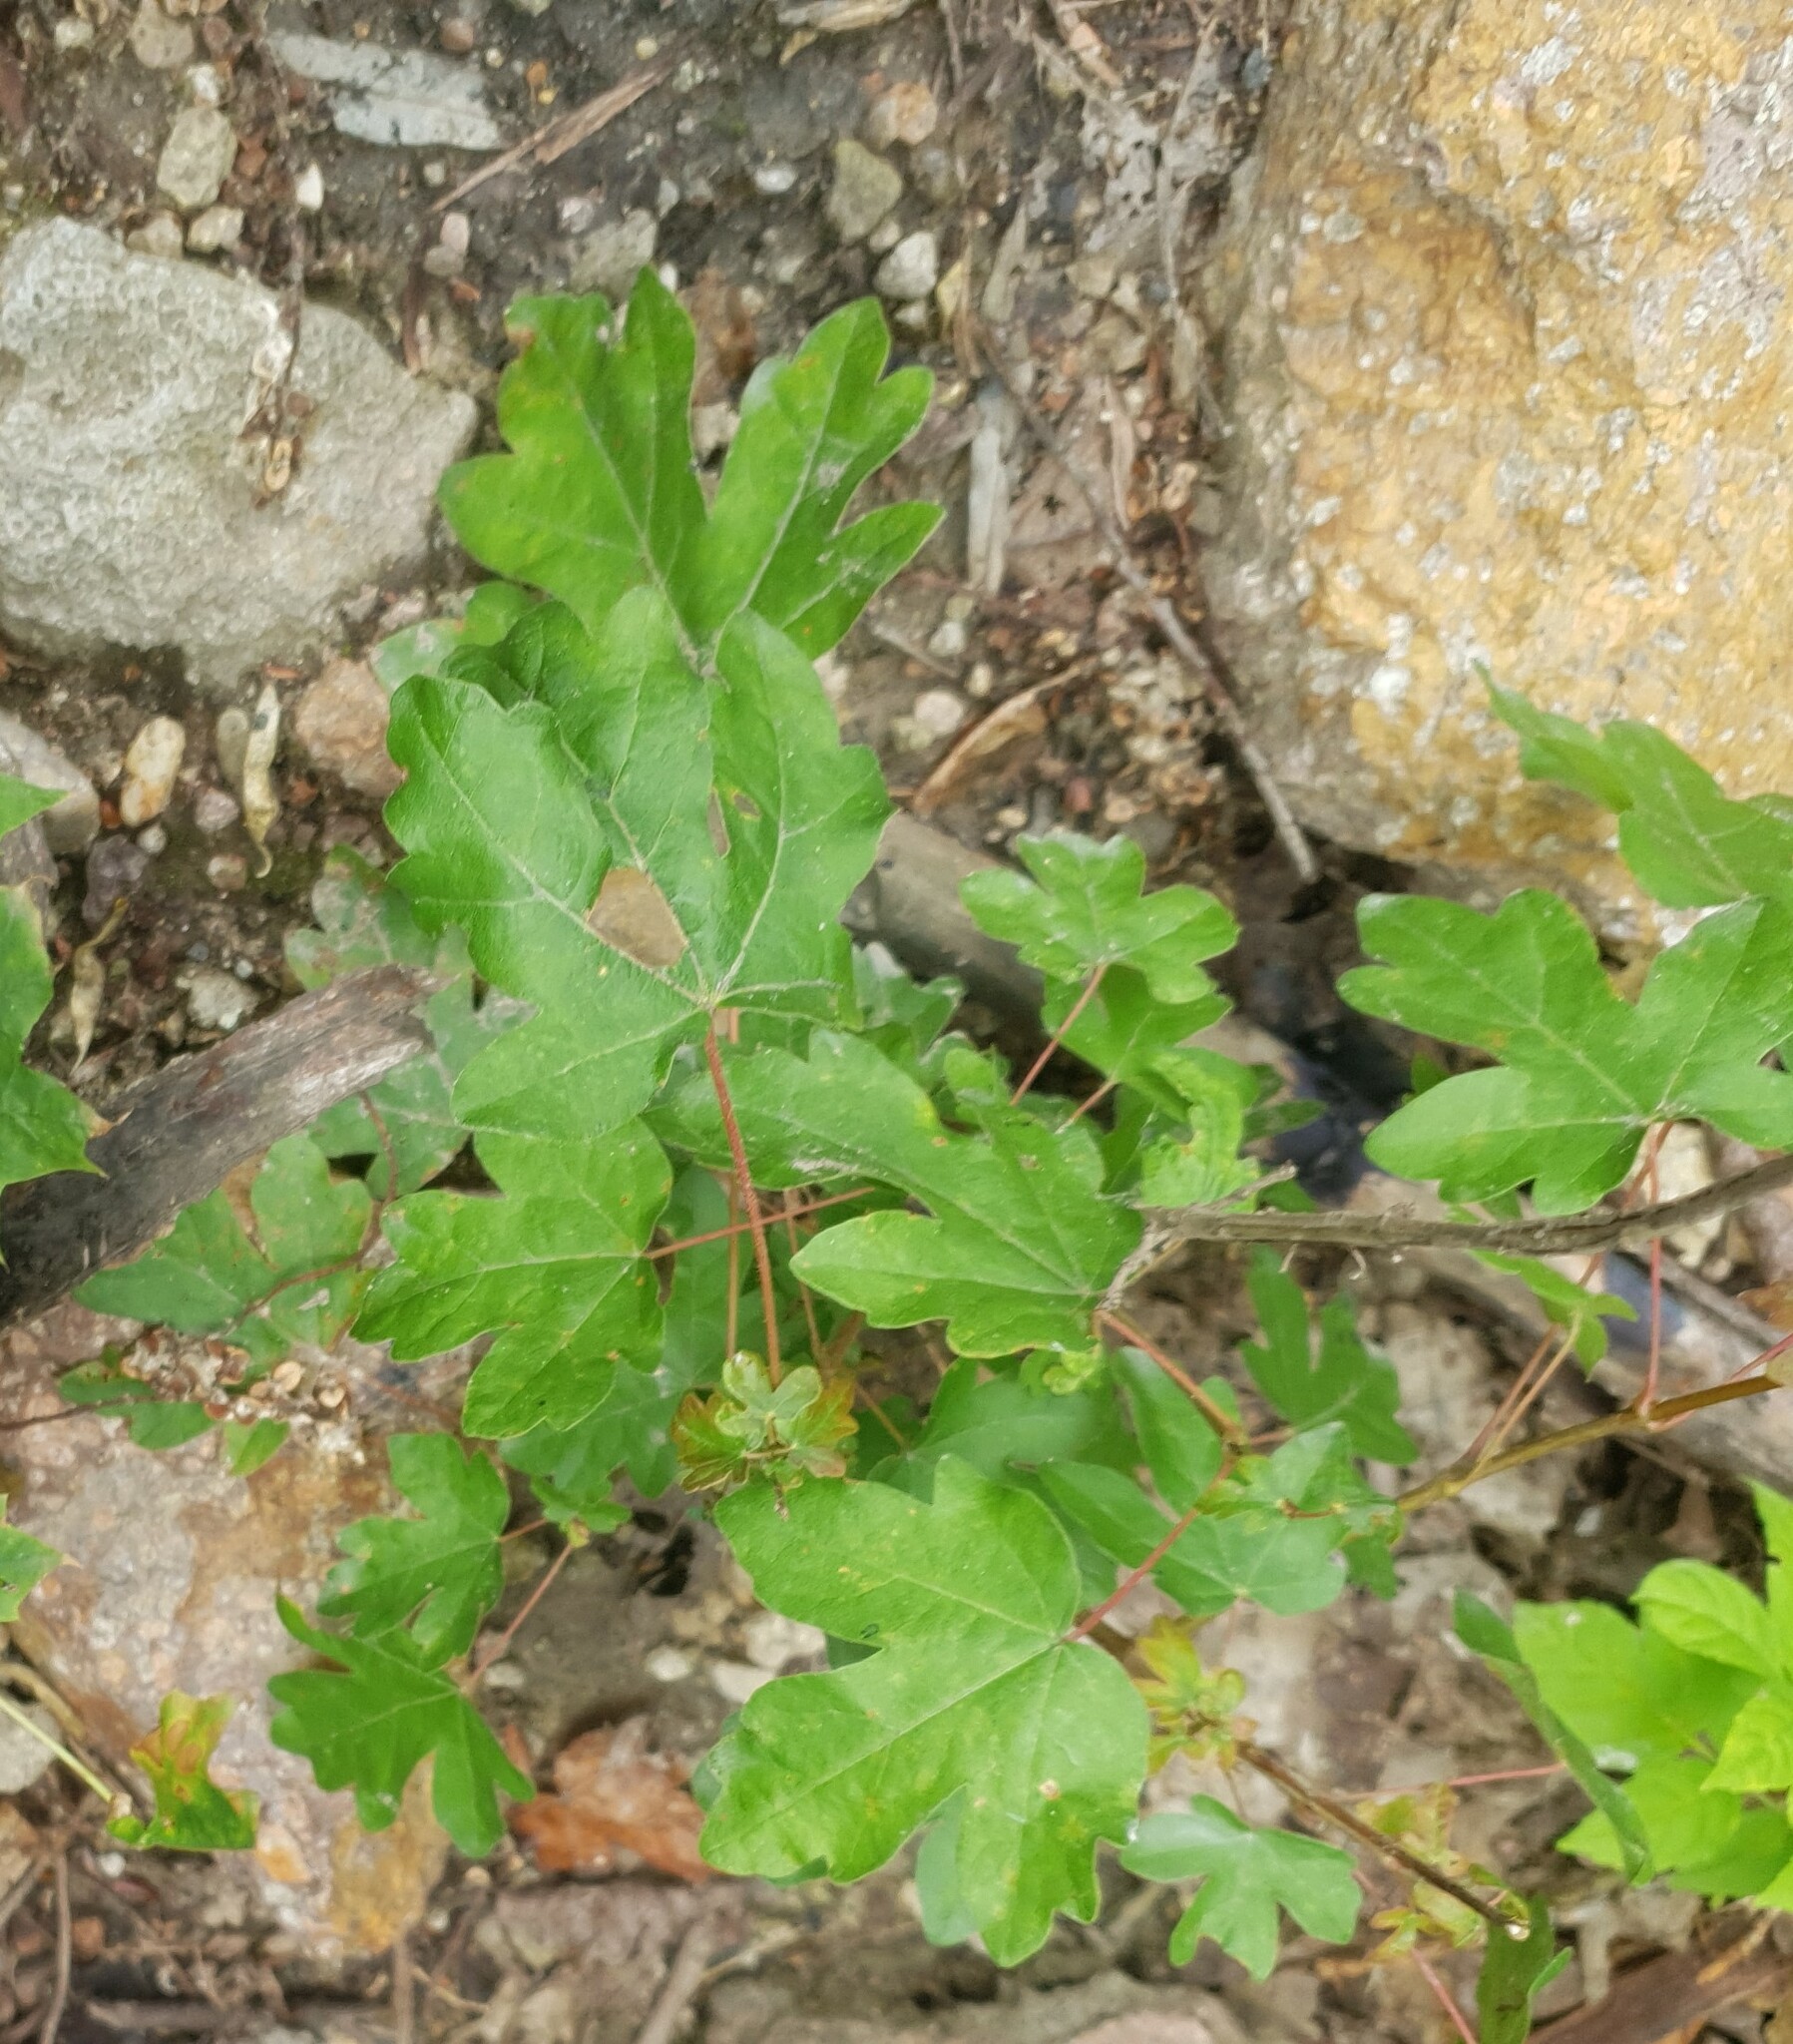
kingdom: Plantae
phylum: Tracheophyta
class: Magnoliopsida
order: Sapindales
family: Sapindaceae
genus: Acer
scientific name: Acer campestre
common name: Field maple
